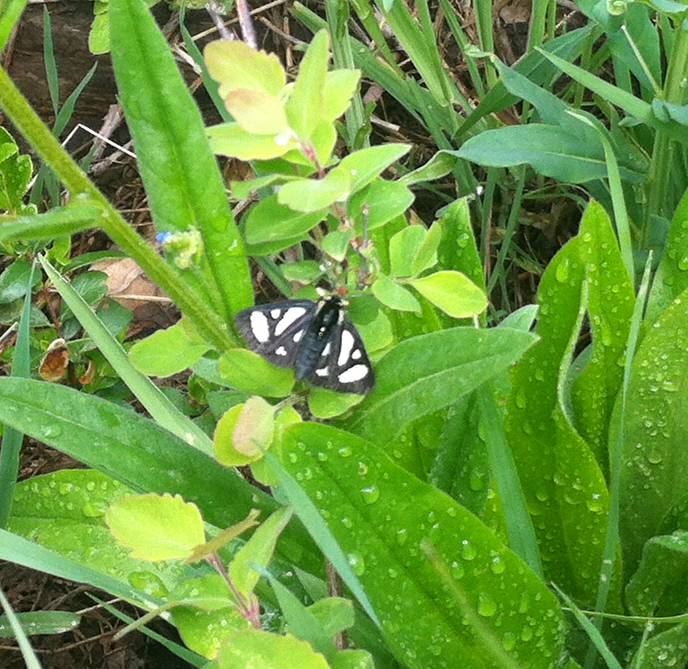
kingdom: Animalia
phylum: Arthropoda
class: Insecta
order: Lepidoptera
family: Noctuidae
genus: Alypia
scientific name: Alypia maccullochii
